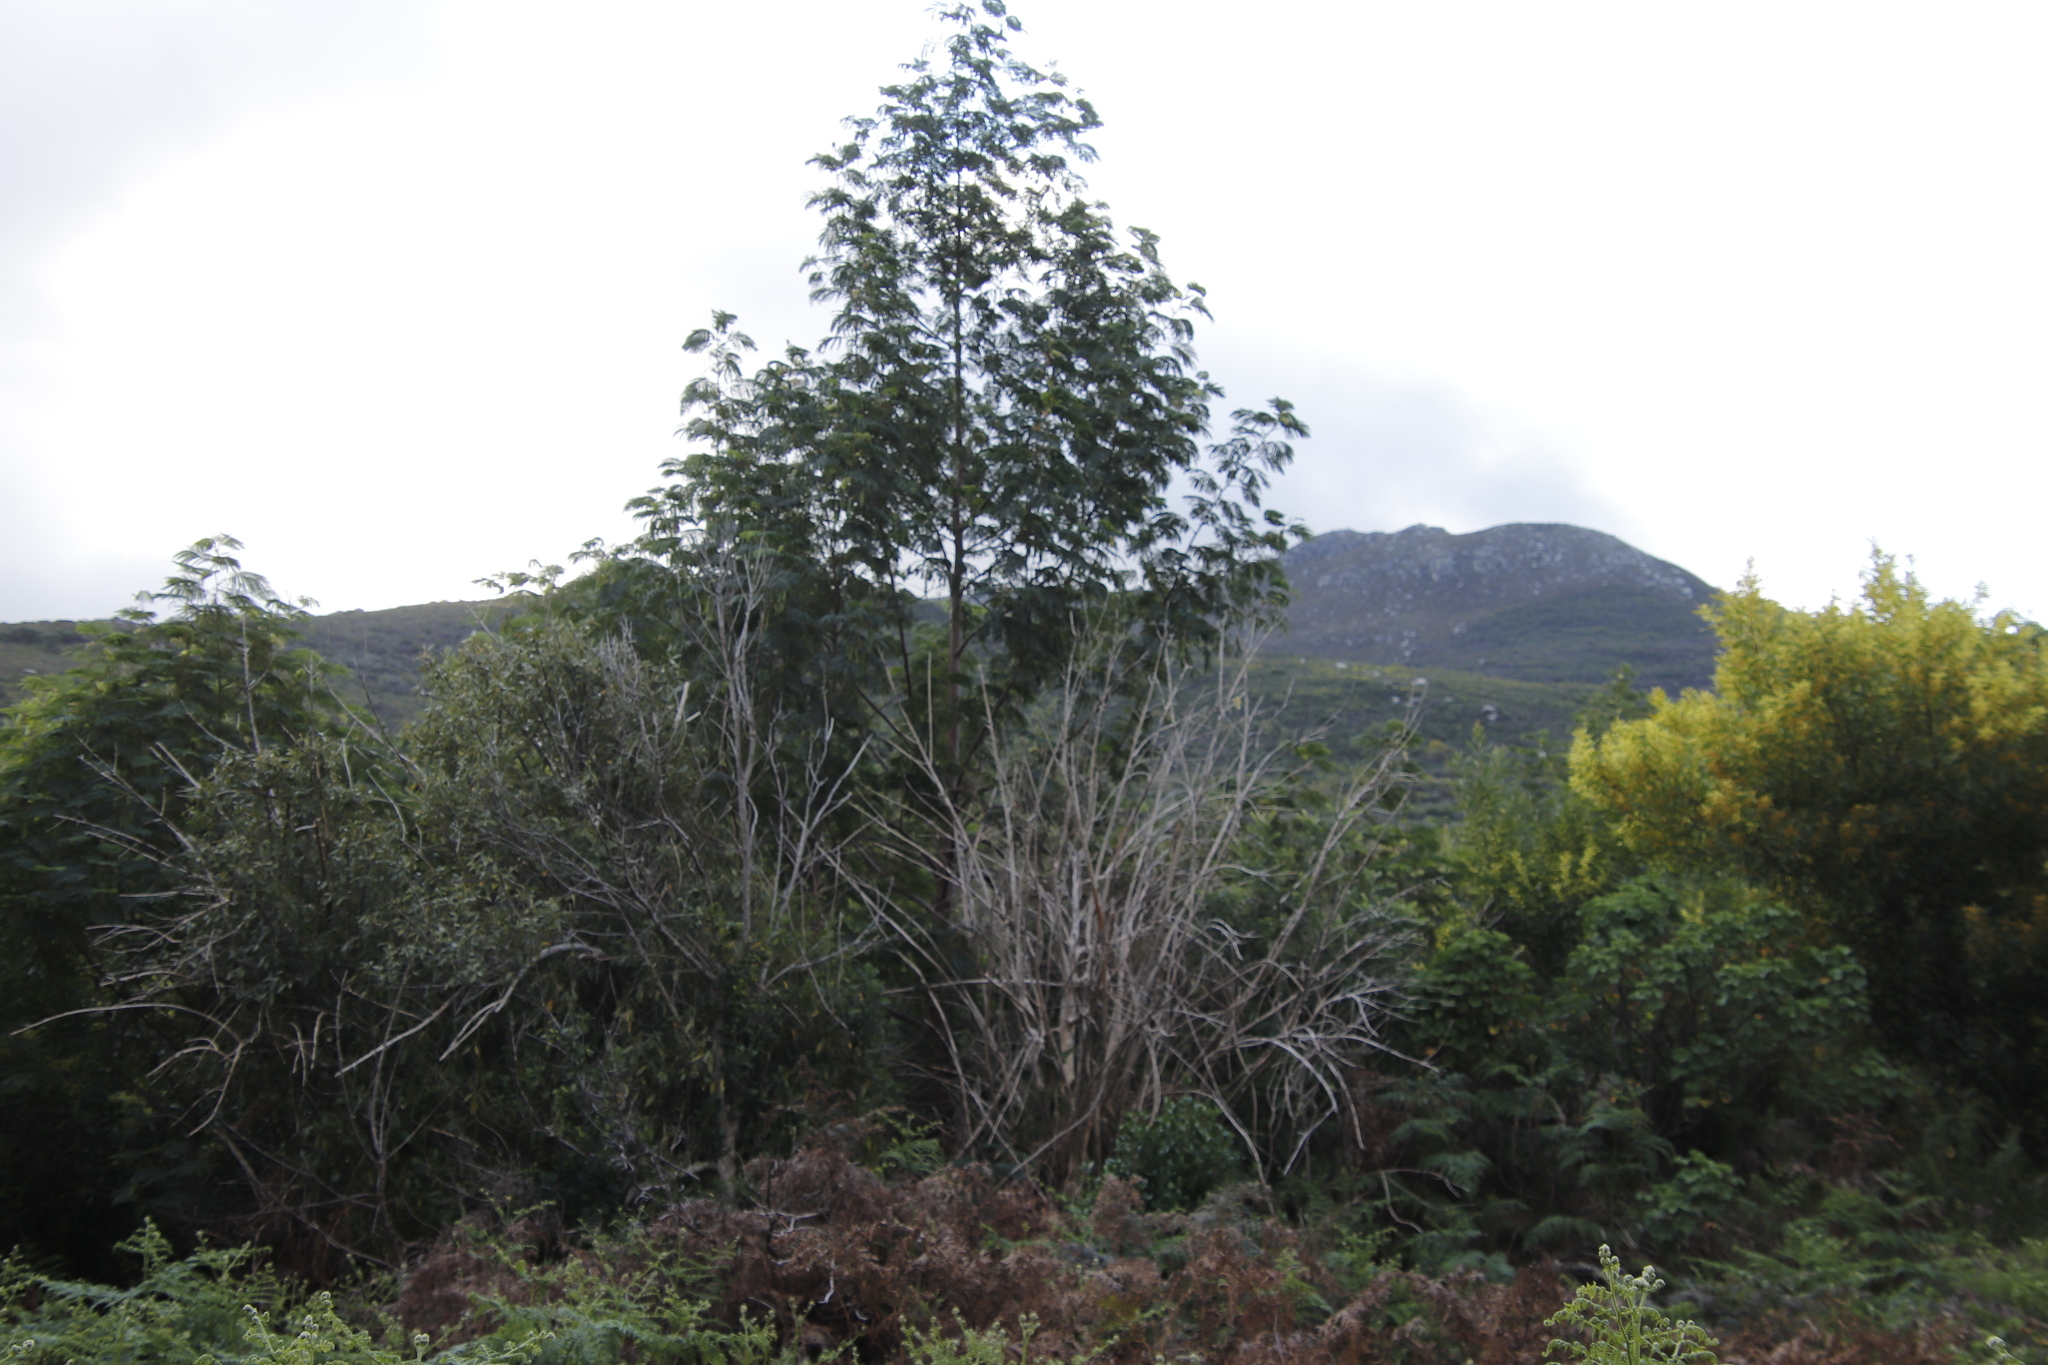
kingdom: Plantae
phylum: Tracheophyta
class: Magnoliopsida
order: Fabales
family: Fabaceae
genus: Paraserianthes
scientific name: Paraserianthes lophantha
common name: Plume albizia
